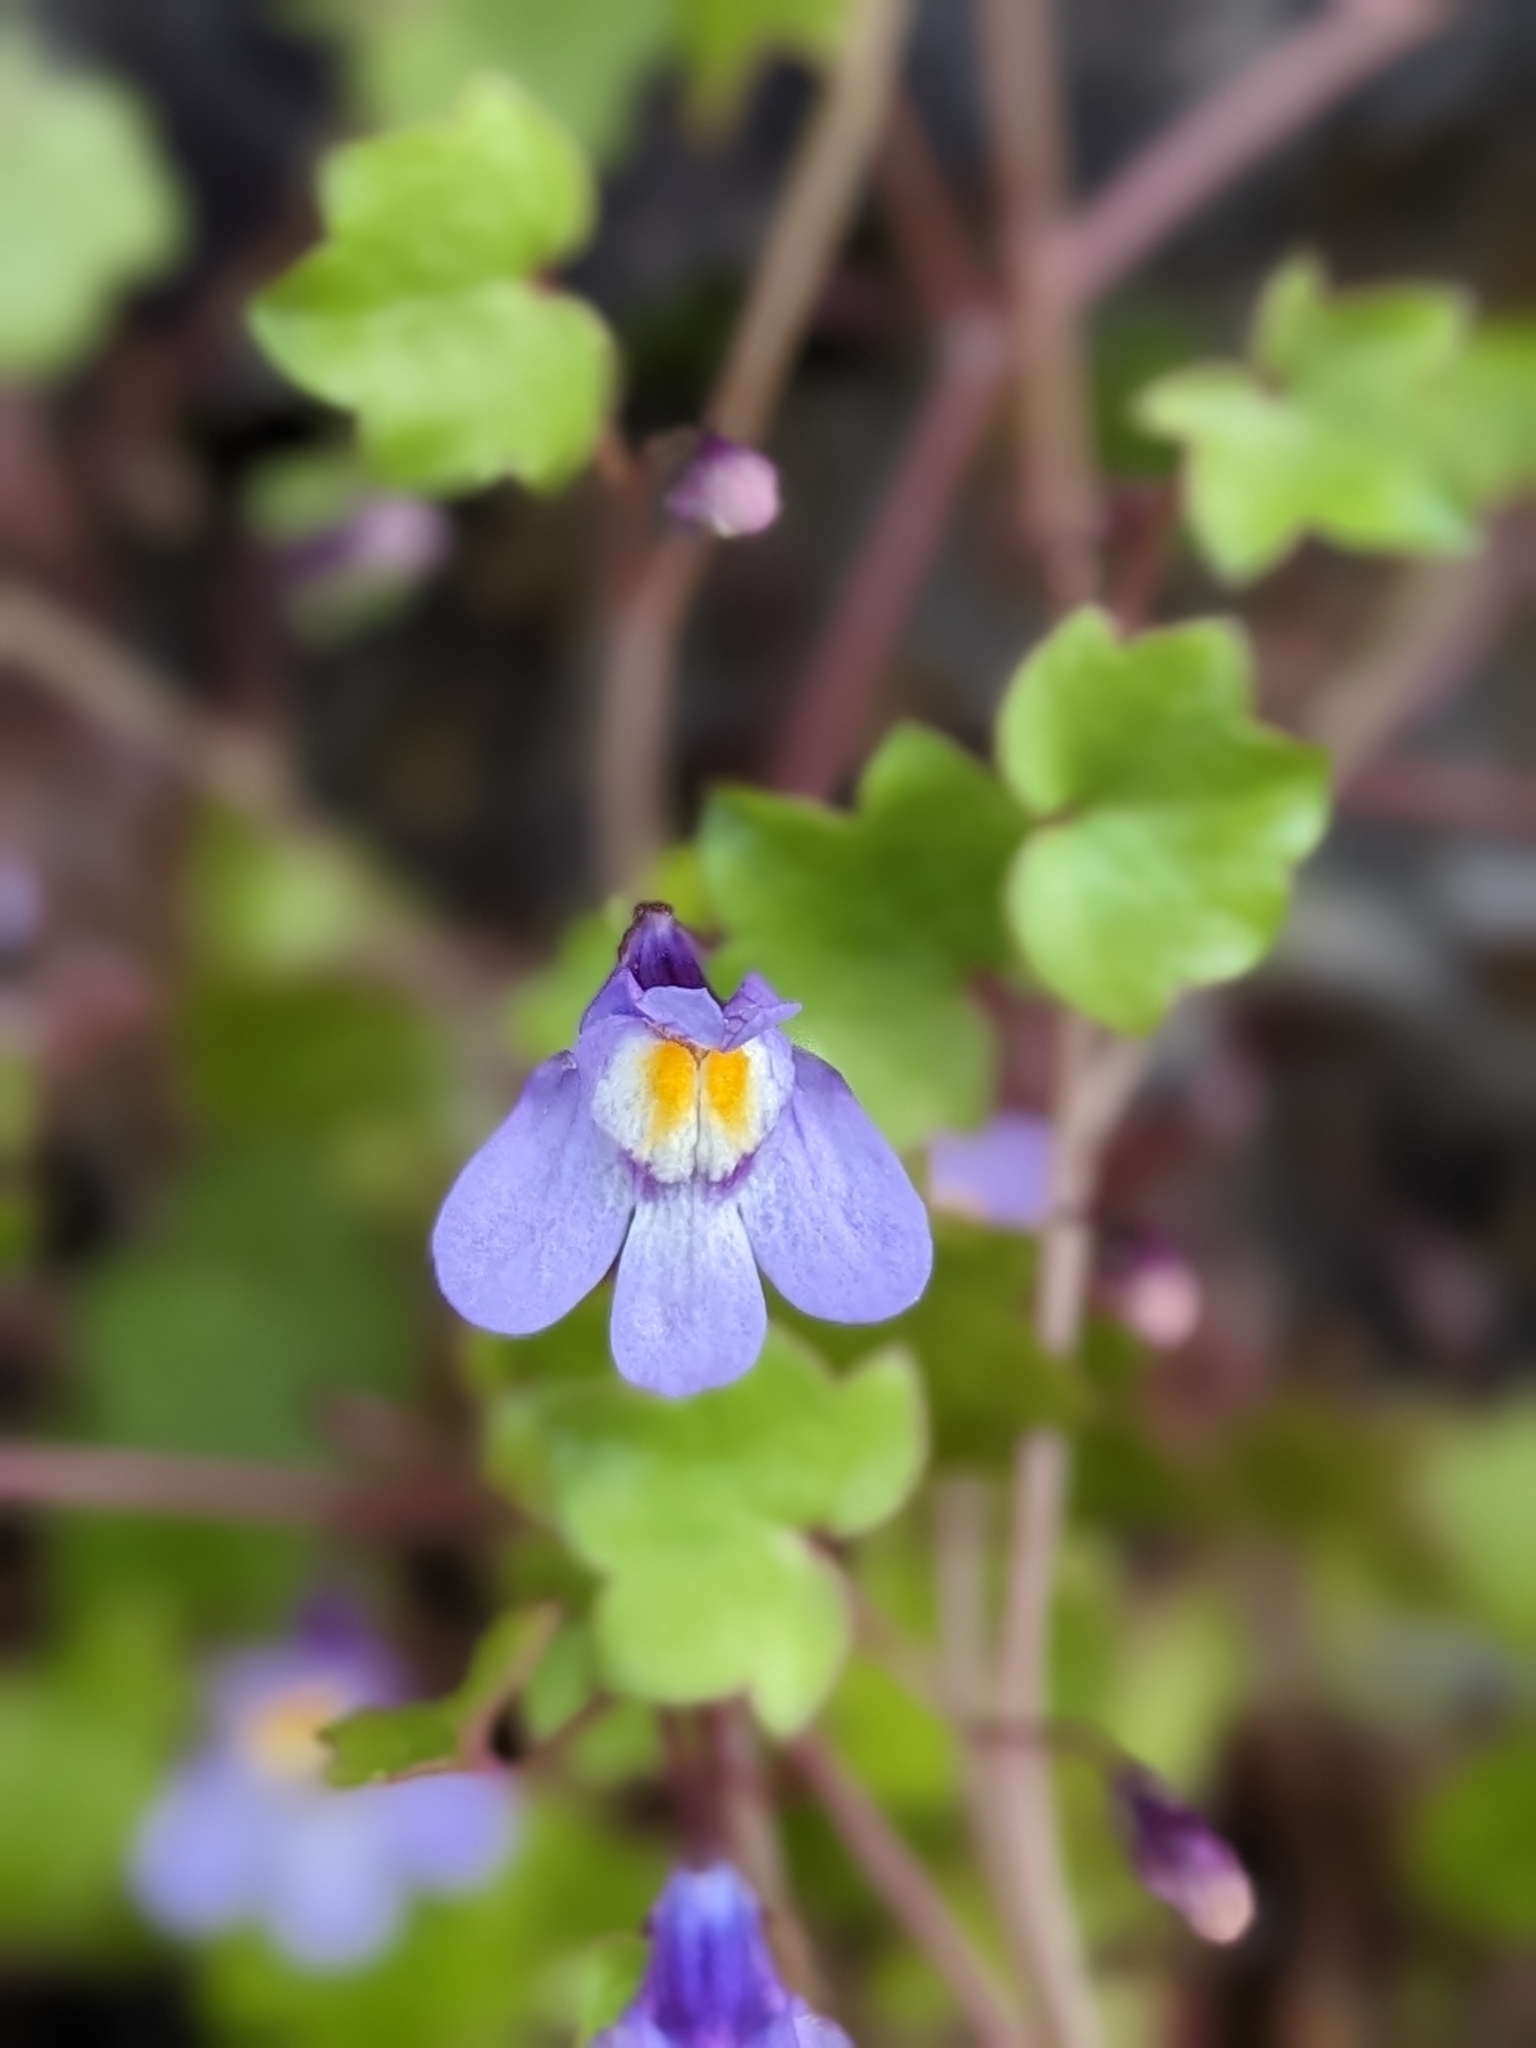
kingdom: Plantae
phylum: Tracheophyta
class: Magnoliopsida
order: Lamiales
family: Plantaginaceae
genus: Cymbalaria
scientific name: Cymbalaria muralis
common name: Ivy-leaved toadflax
